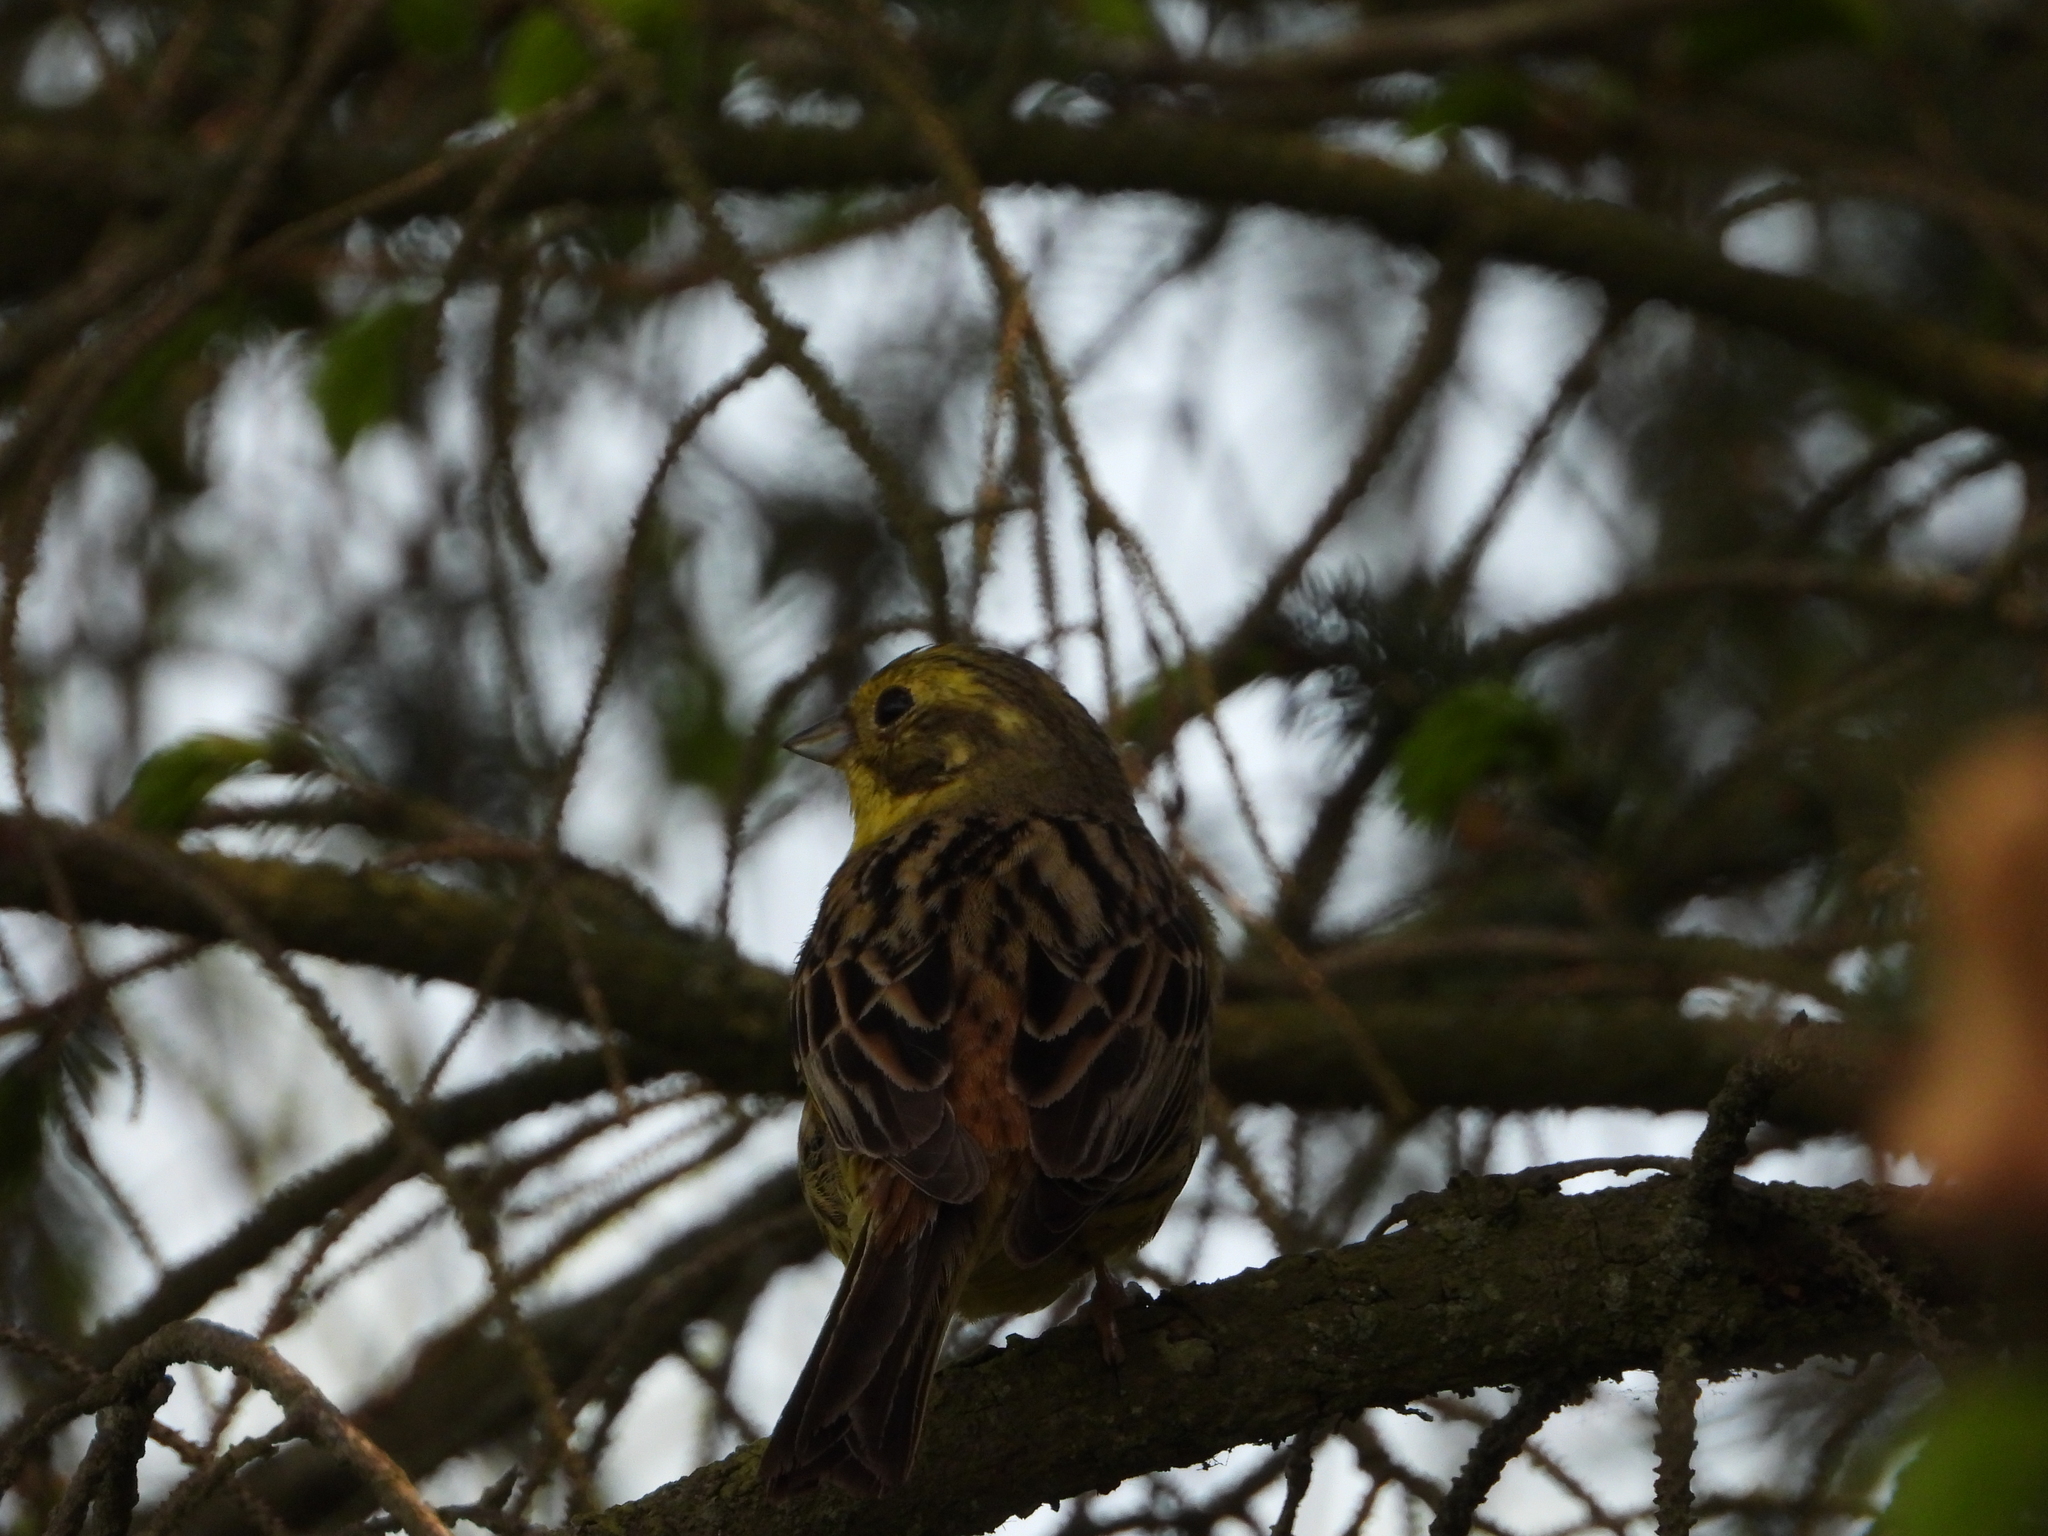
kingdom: Animalia
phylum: Chordata
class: Aves
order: Passeriformes
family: Emberizidae
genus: Emberiza
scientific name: Emberiza citrinella
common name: Yellowhammer
